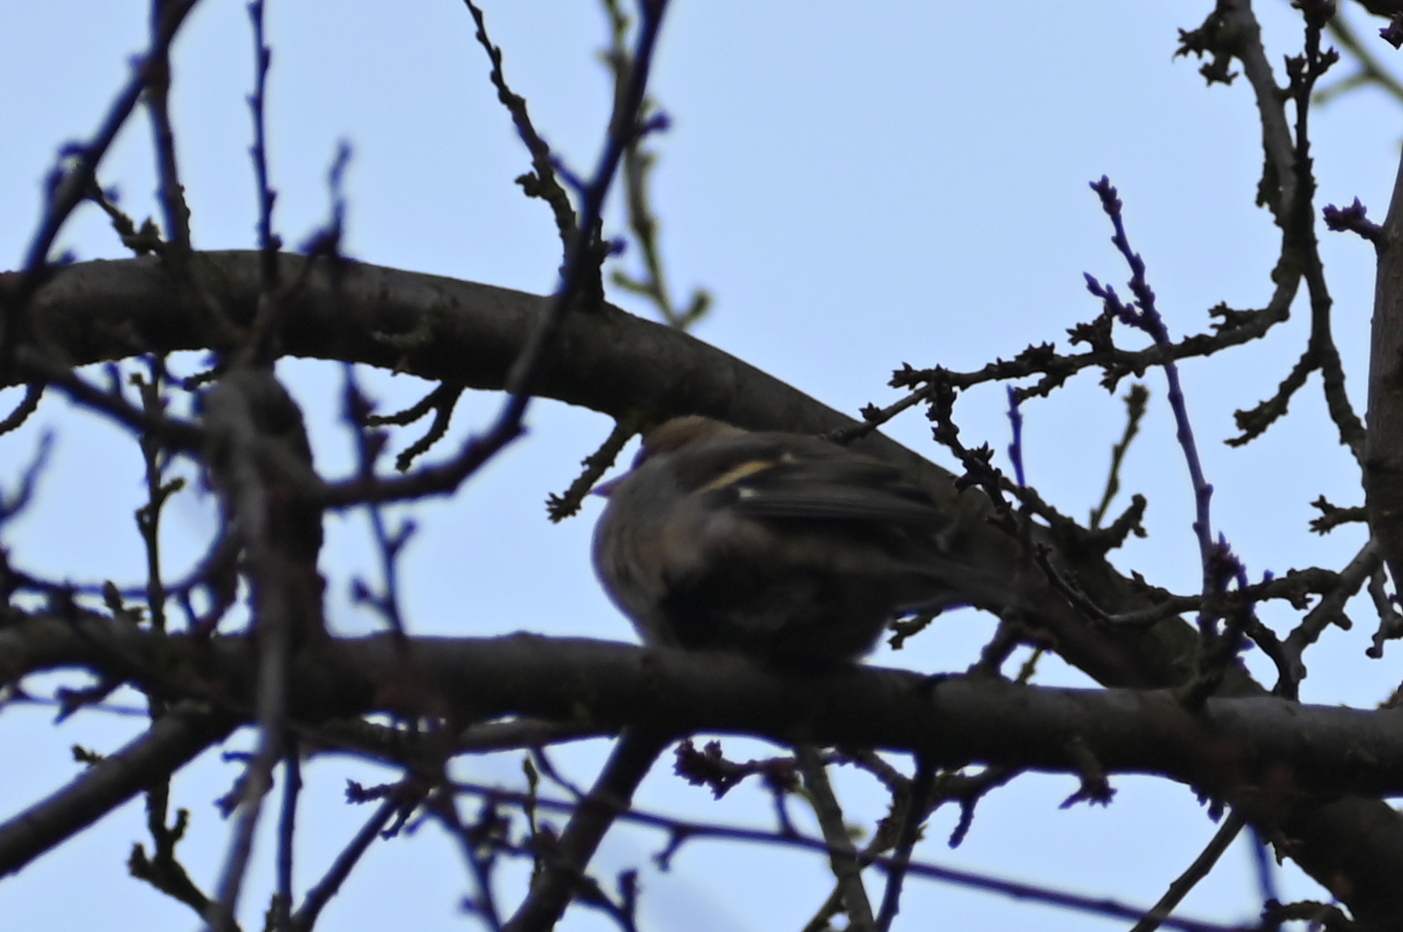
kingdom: Animalia
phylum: Chordata
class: Aves
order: Passeriformes
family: Fringillidae
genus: Fringilla
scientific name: Fringilla coelebs
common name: Common chaffinch
